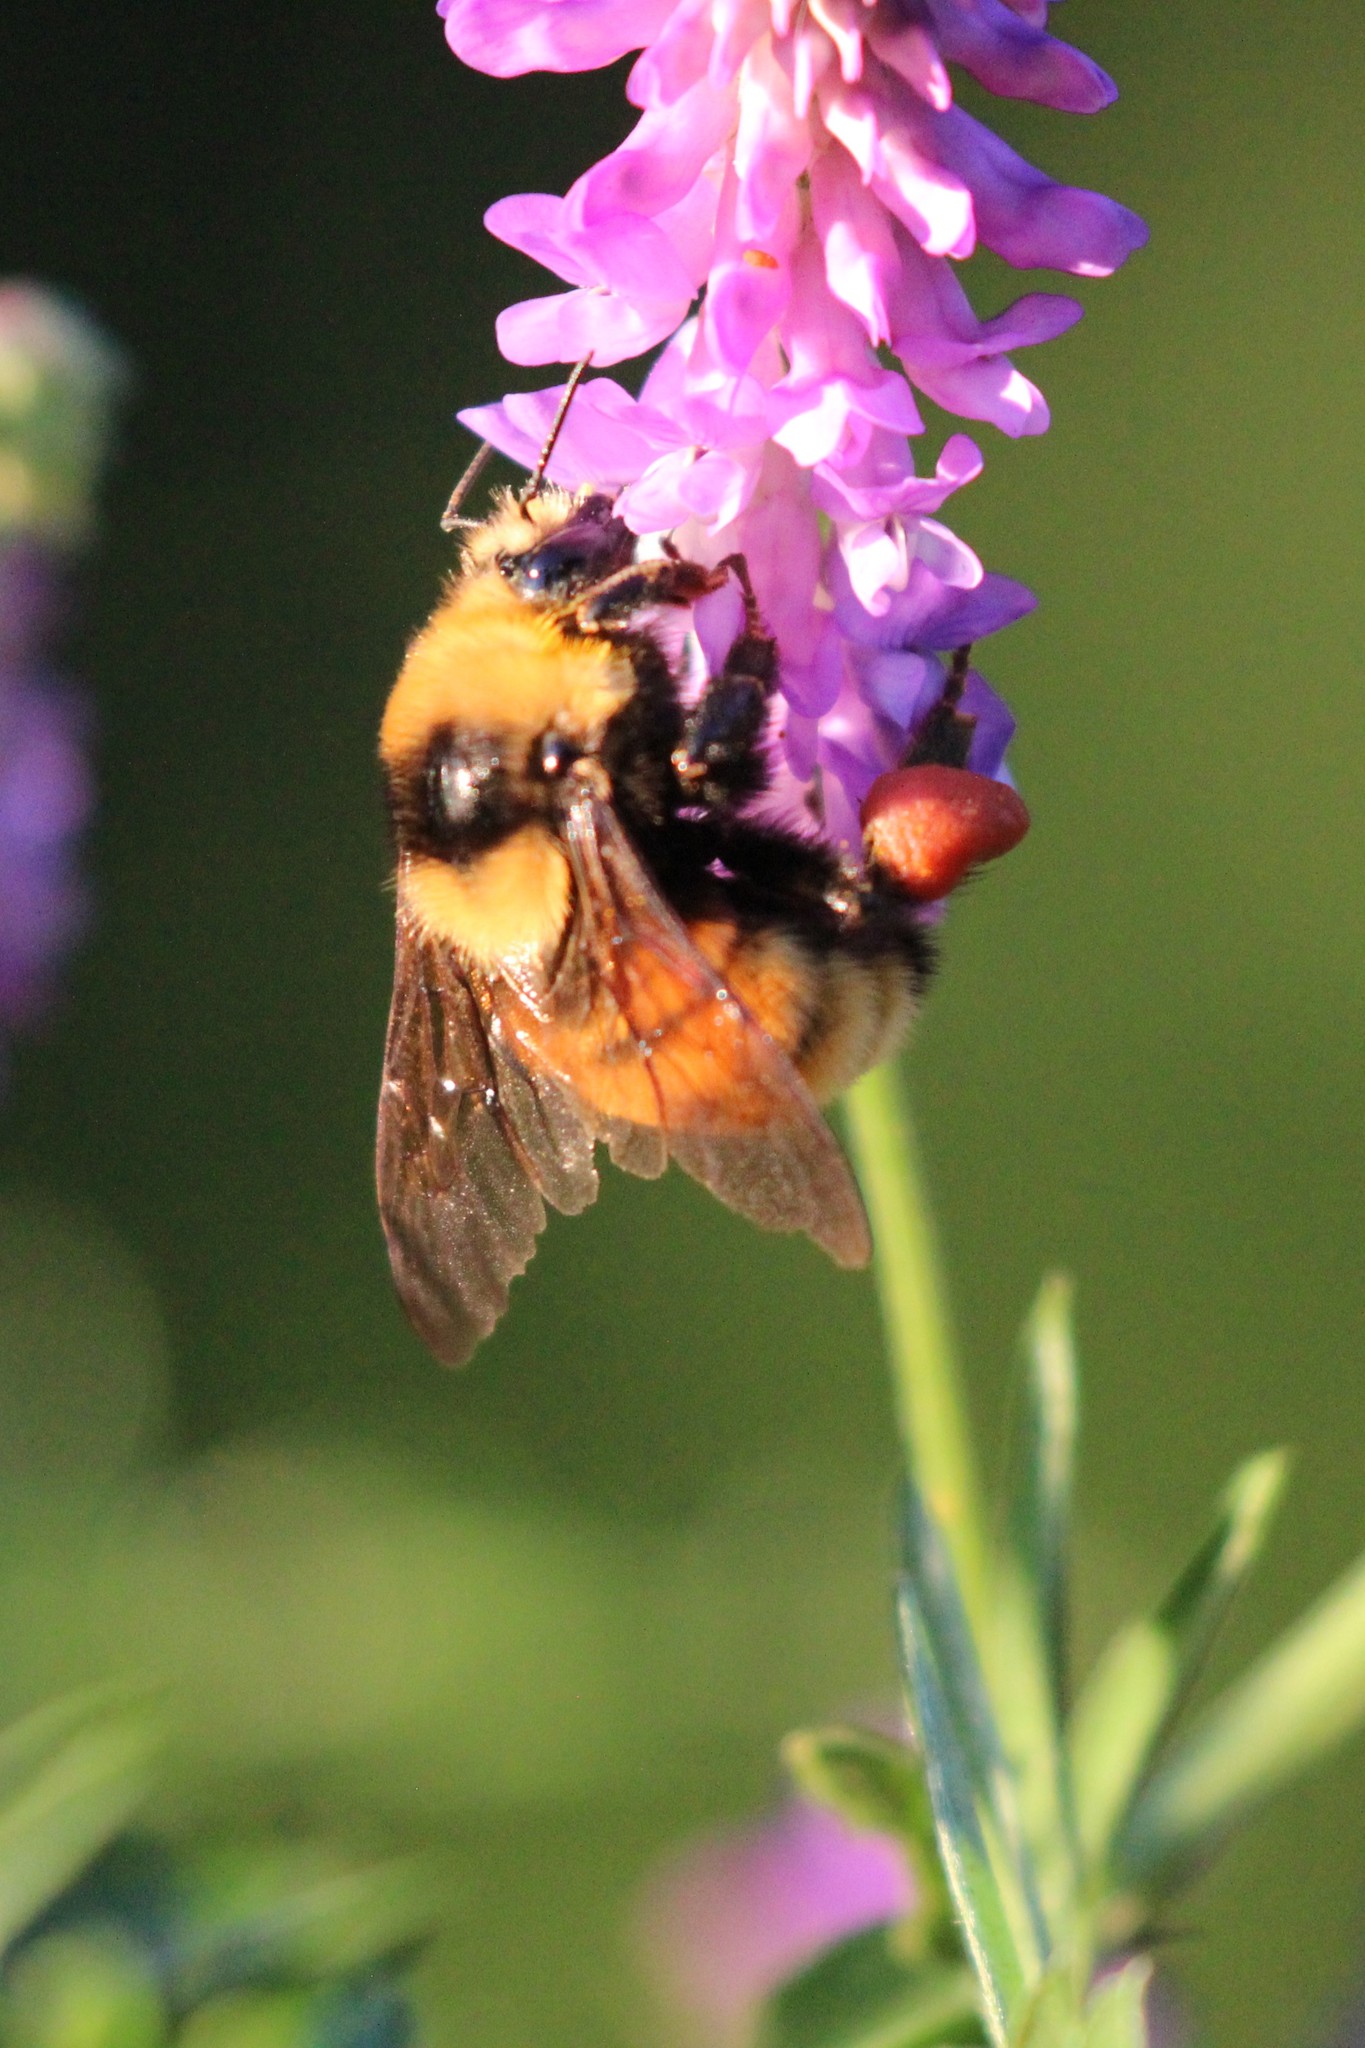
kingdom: Animalia
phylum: Arthropoda
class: Insecta
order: Hymenoptera
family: Apidae
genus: Bombus
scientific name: Bombus borealis
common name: Northern amber bumble bee
